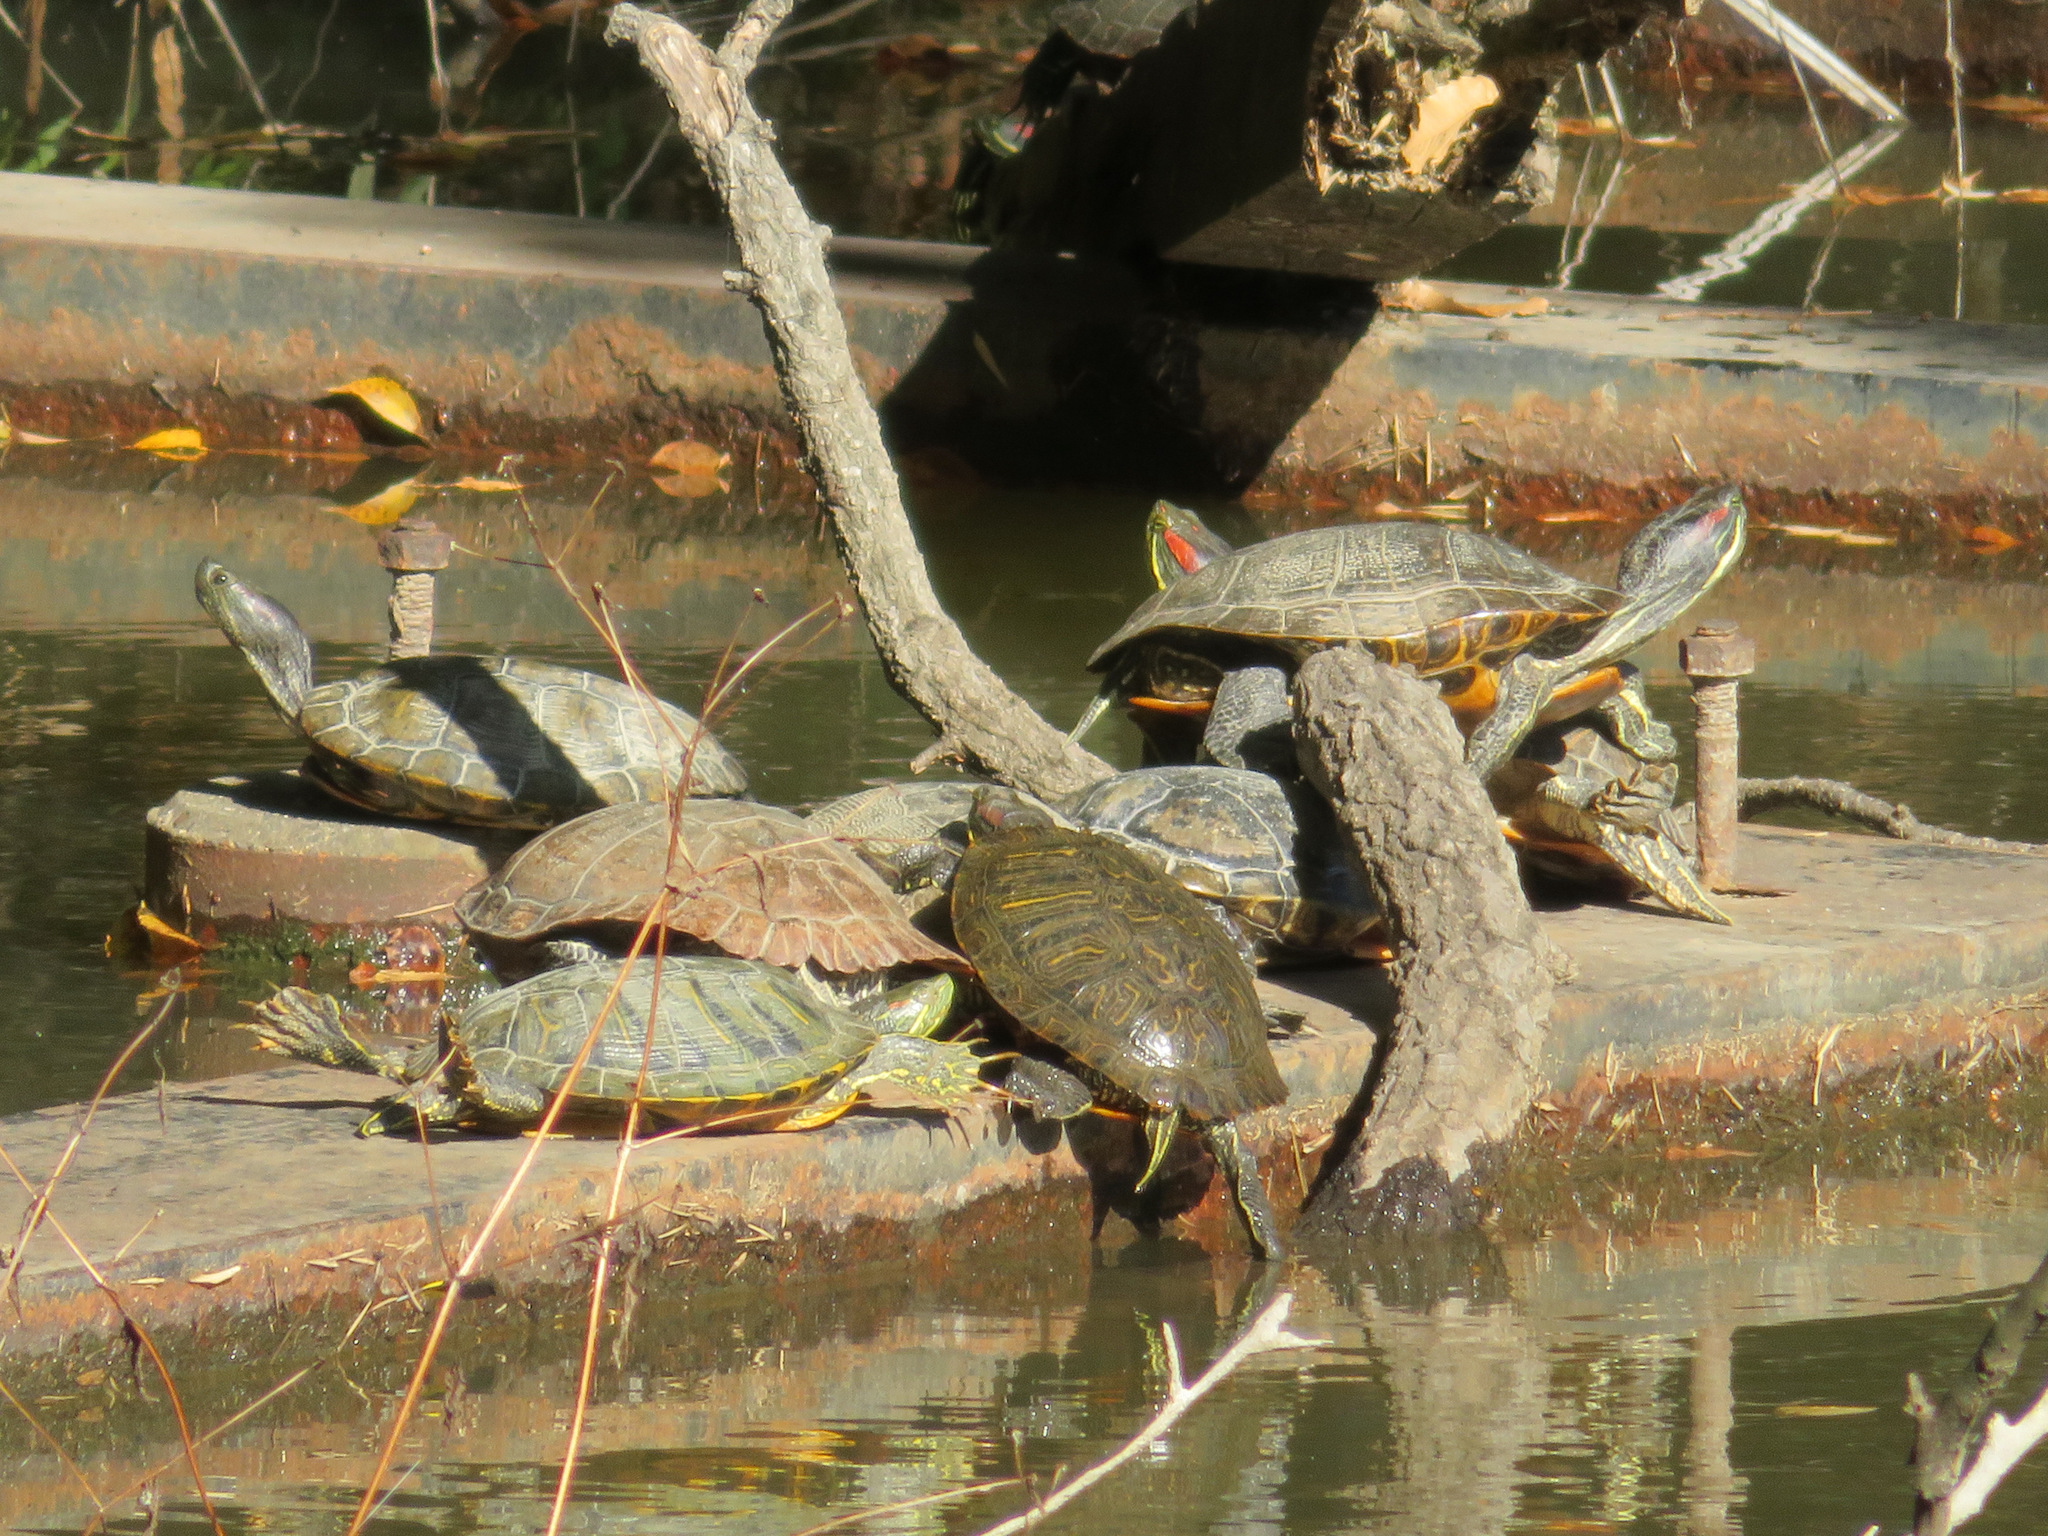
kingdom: Animalia
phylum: Chordata
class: Testudines
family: Emydidae
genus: Trachemys
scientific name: Trachemys scripta
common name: Slider
